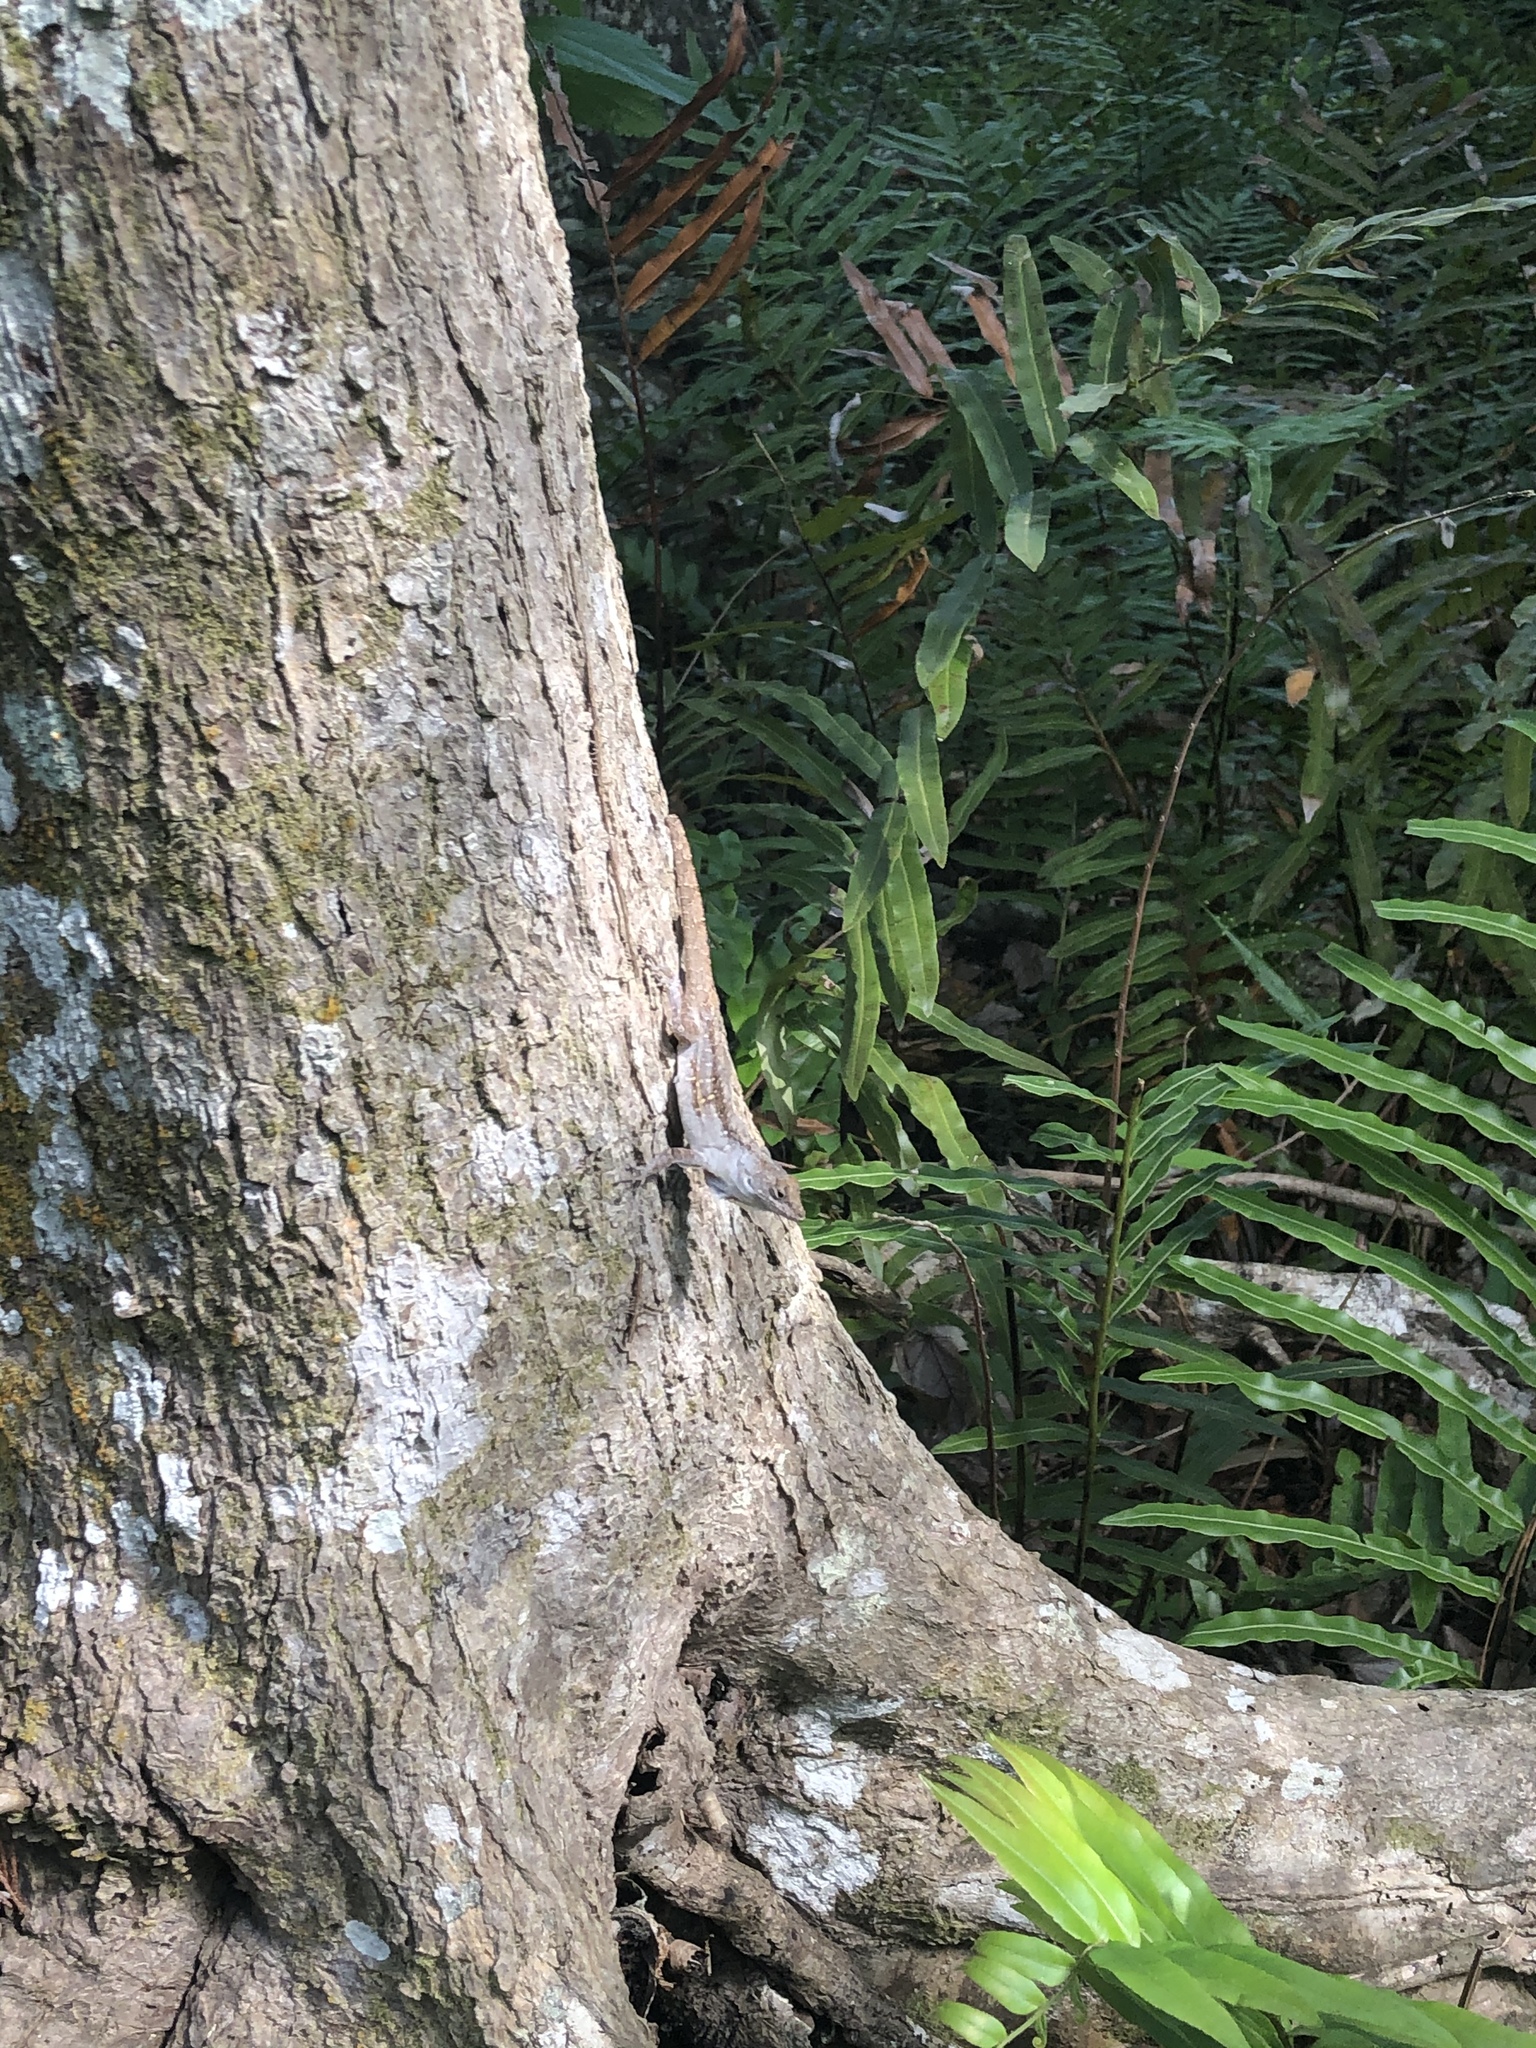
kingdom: Animalia
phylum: Chordata
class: Squamata
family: Dactyloidae
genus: Anolis
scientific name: Anolis sagrei
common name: Brown anole
